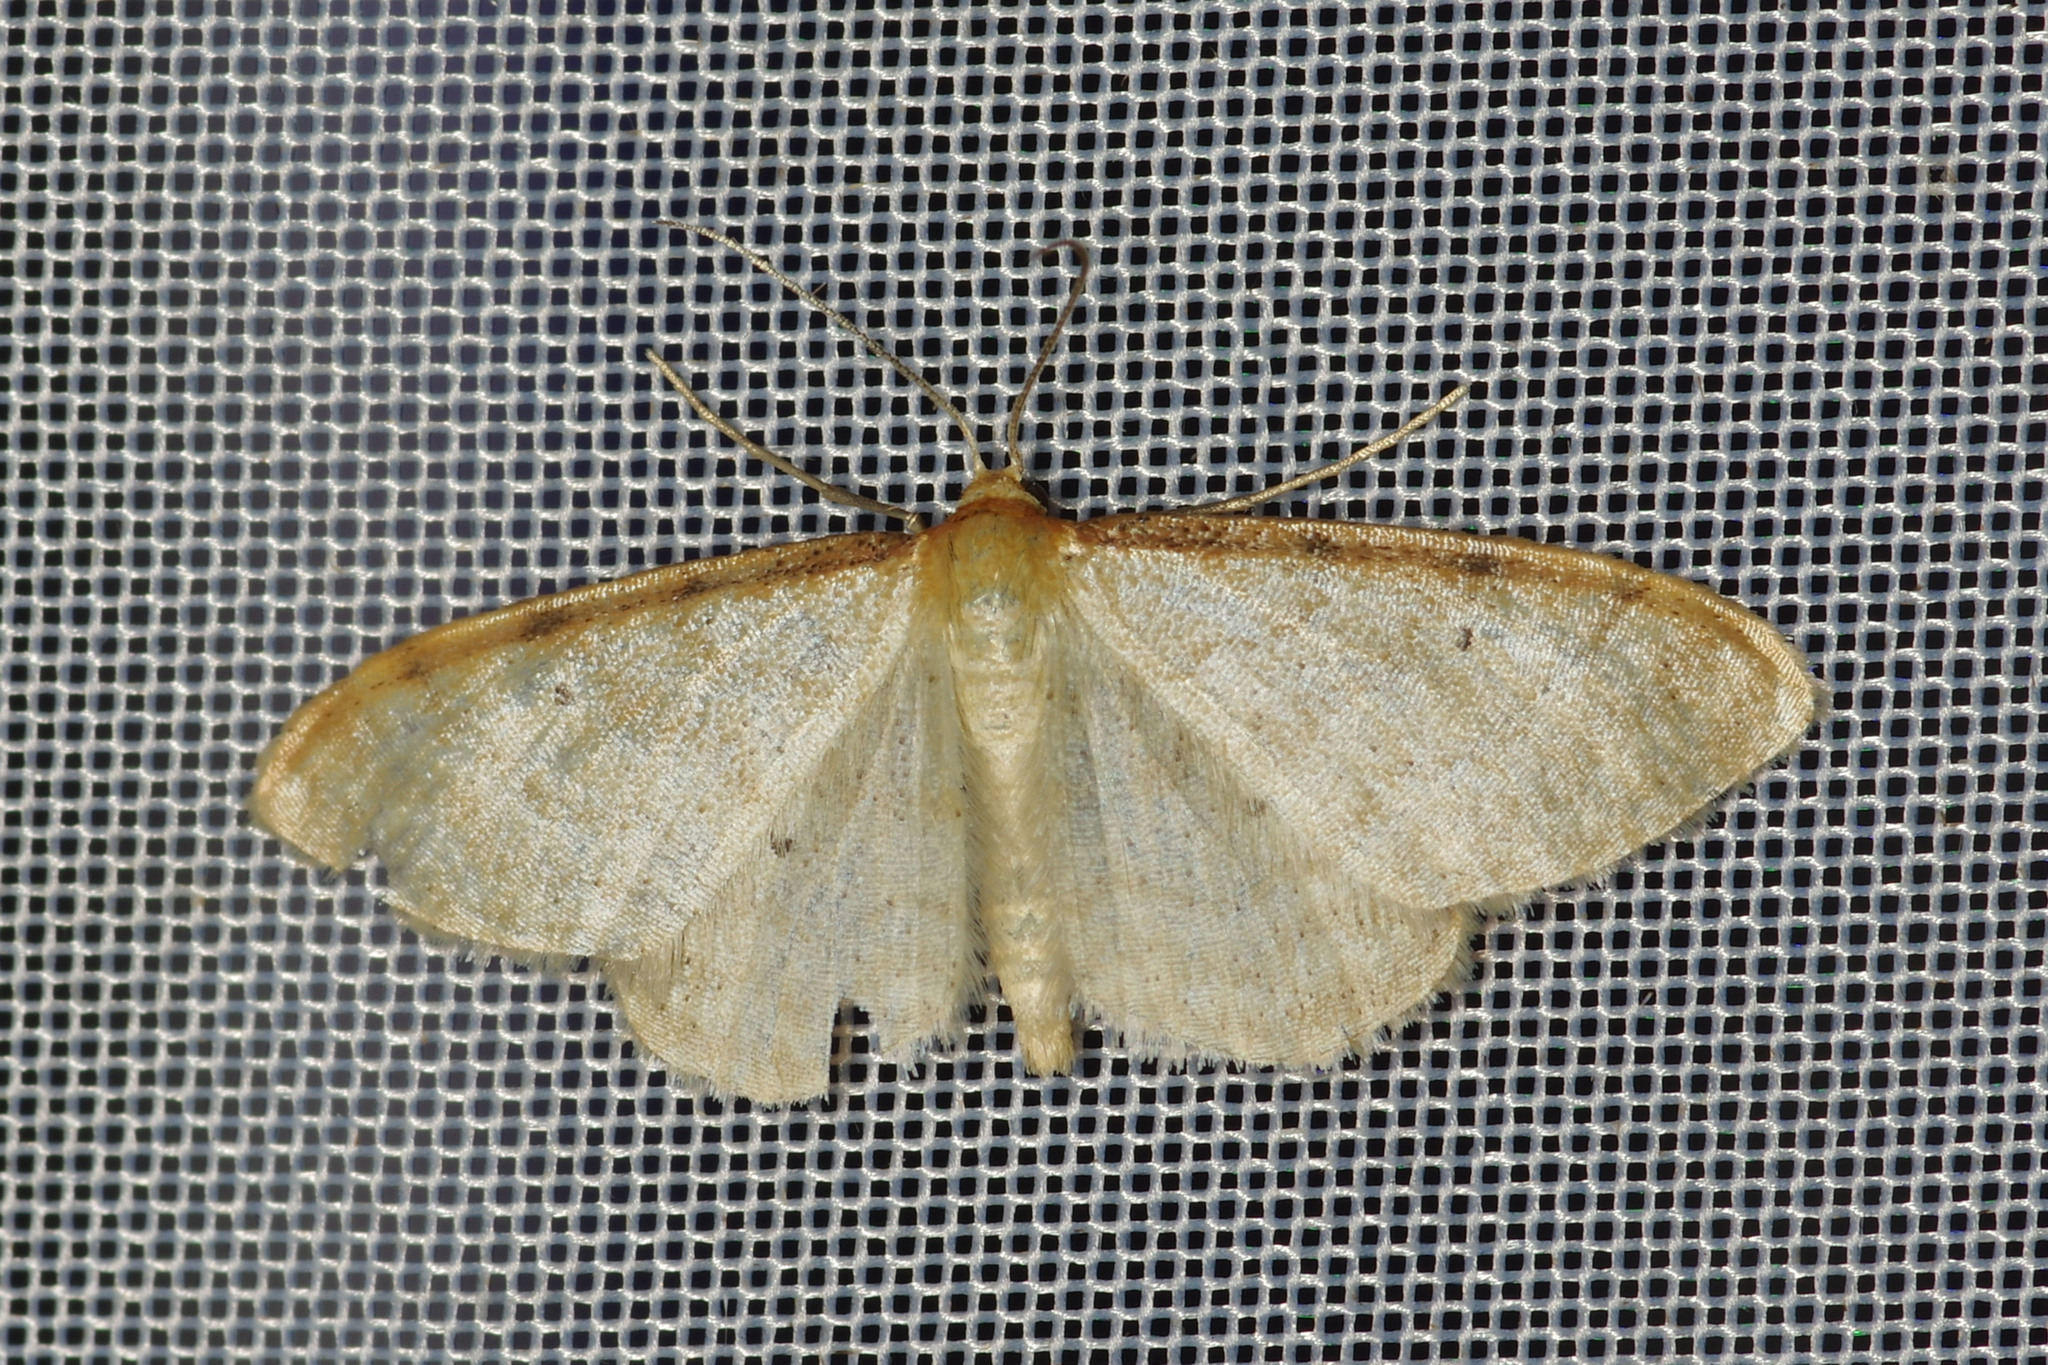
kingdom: Animalia
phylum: Arthropoda
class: Insecta
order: Lepidoptera
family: Geometridae
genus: Idaea
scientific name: Idaea fuscovenosa
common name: Dwarf cream wave
